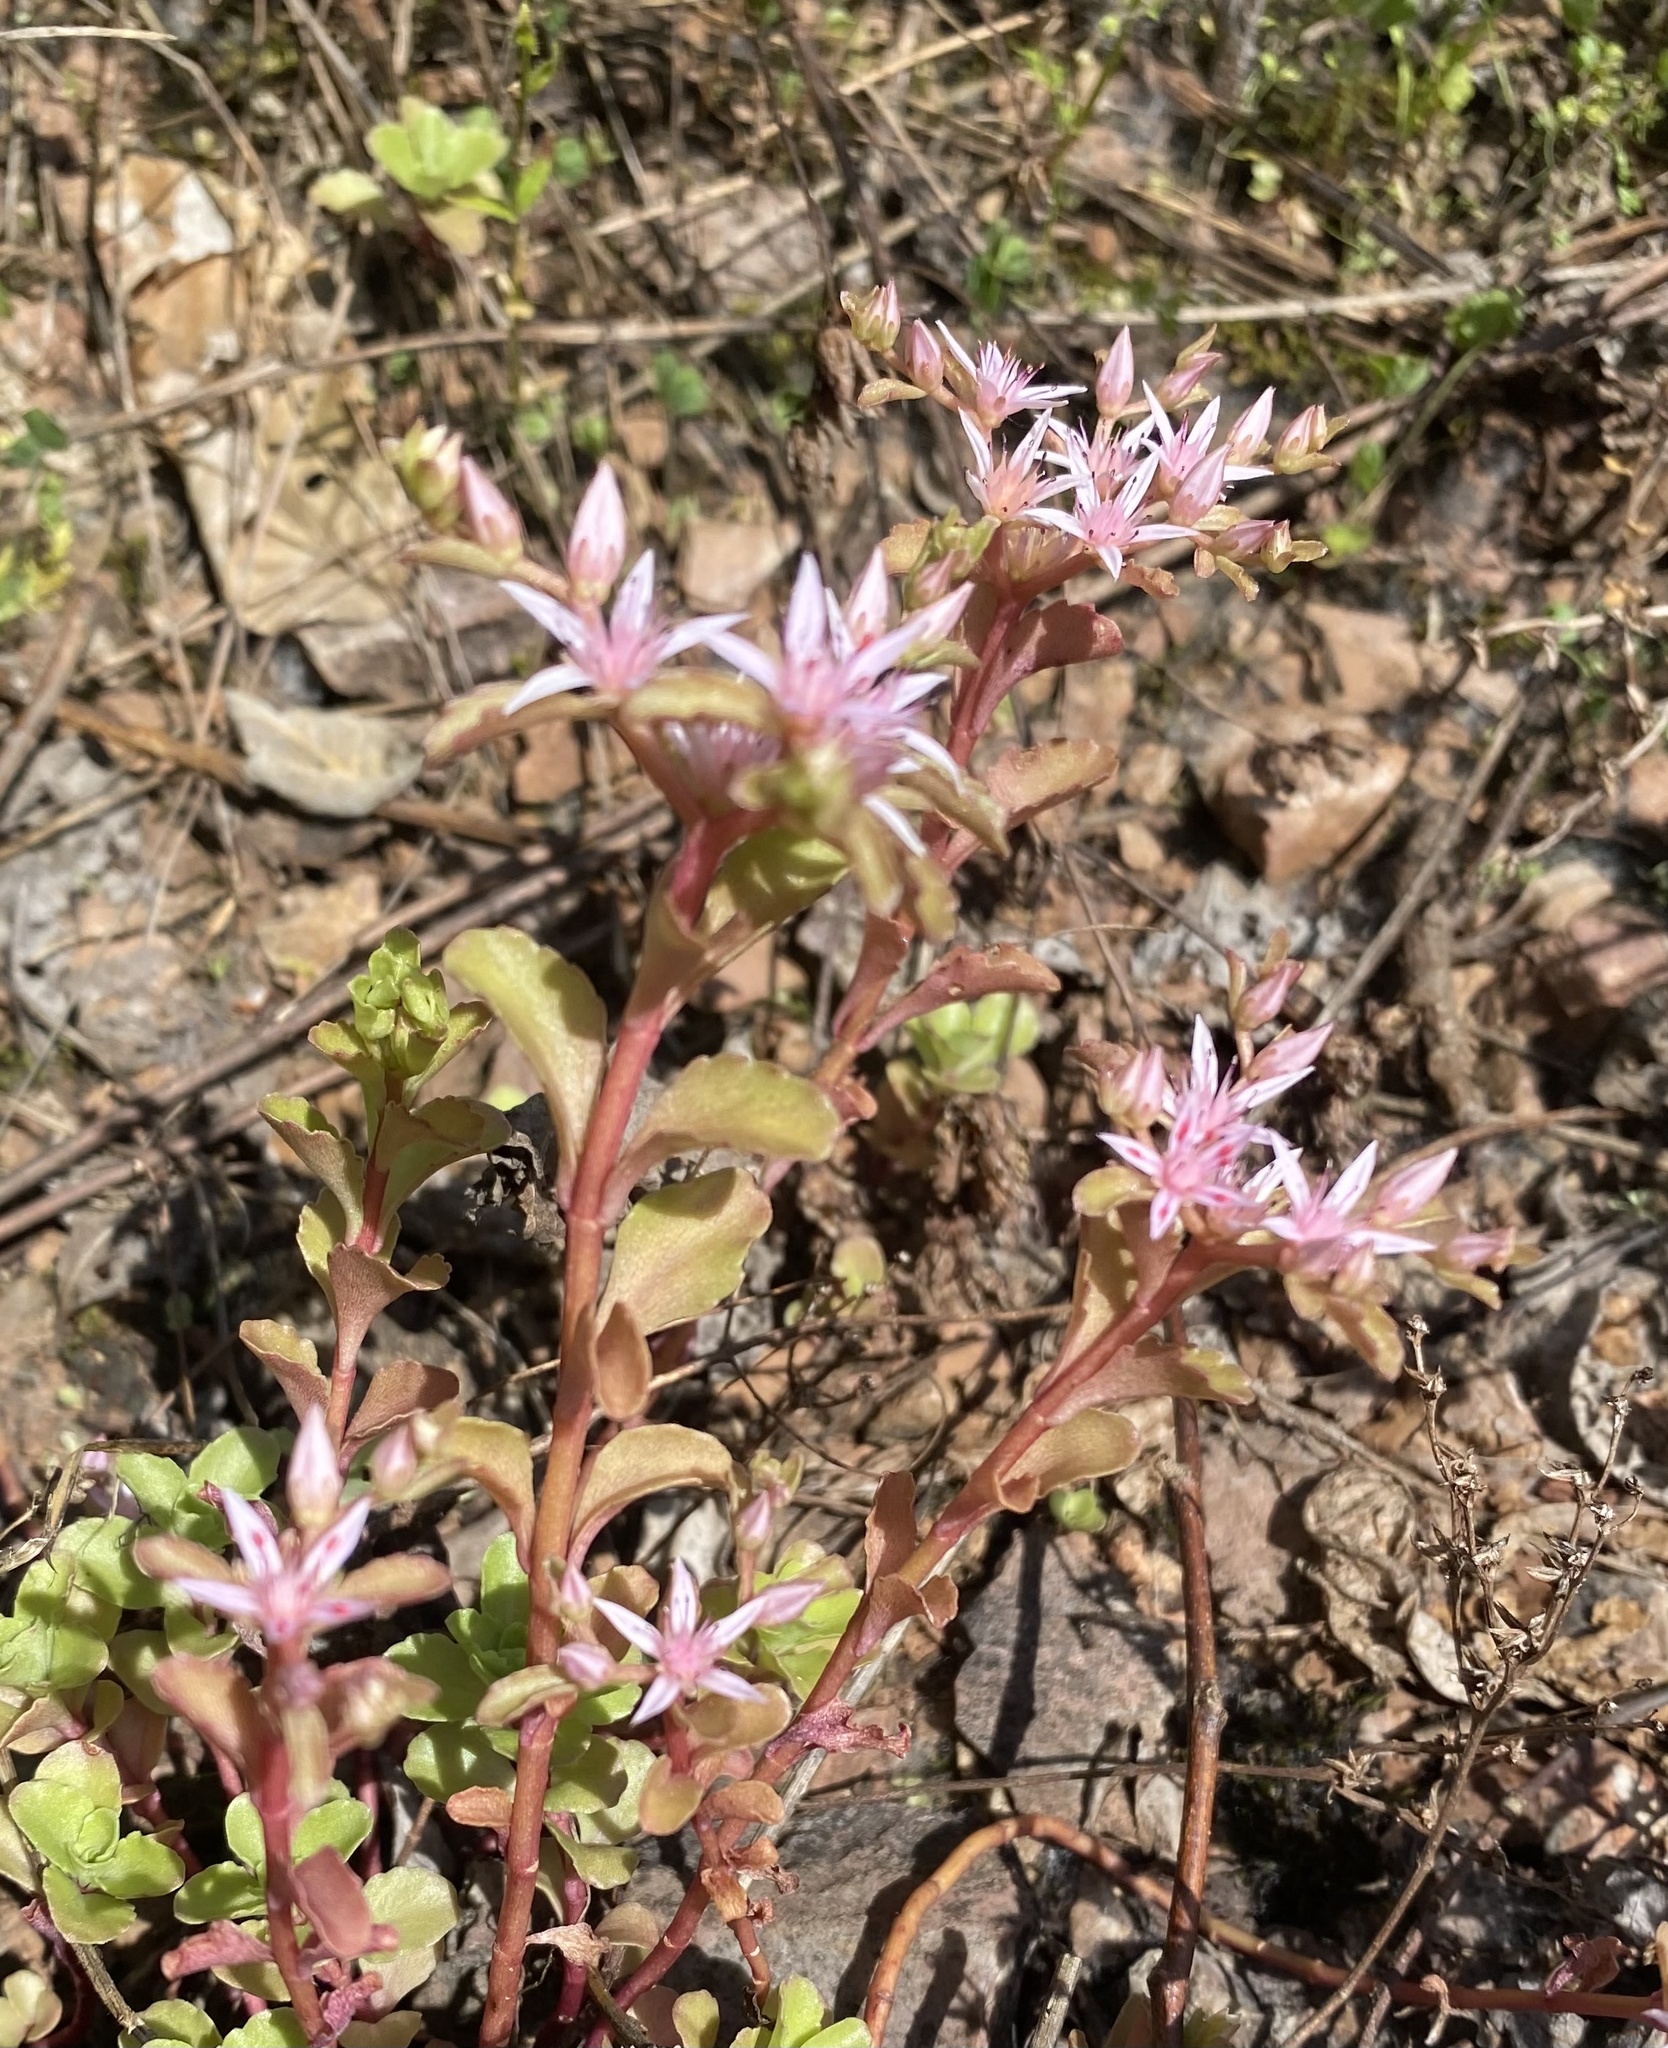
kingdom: Plantae
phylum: Tracheophyta
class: Magnoliopsida
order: Saxifragales
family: Crassulaceae
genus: Phedimus
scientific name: Phedimus stolonifer
